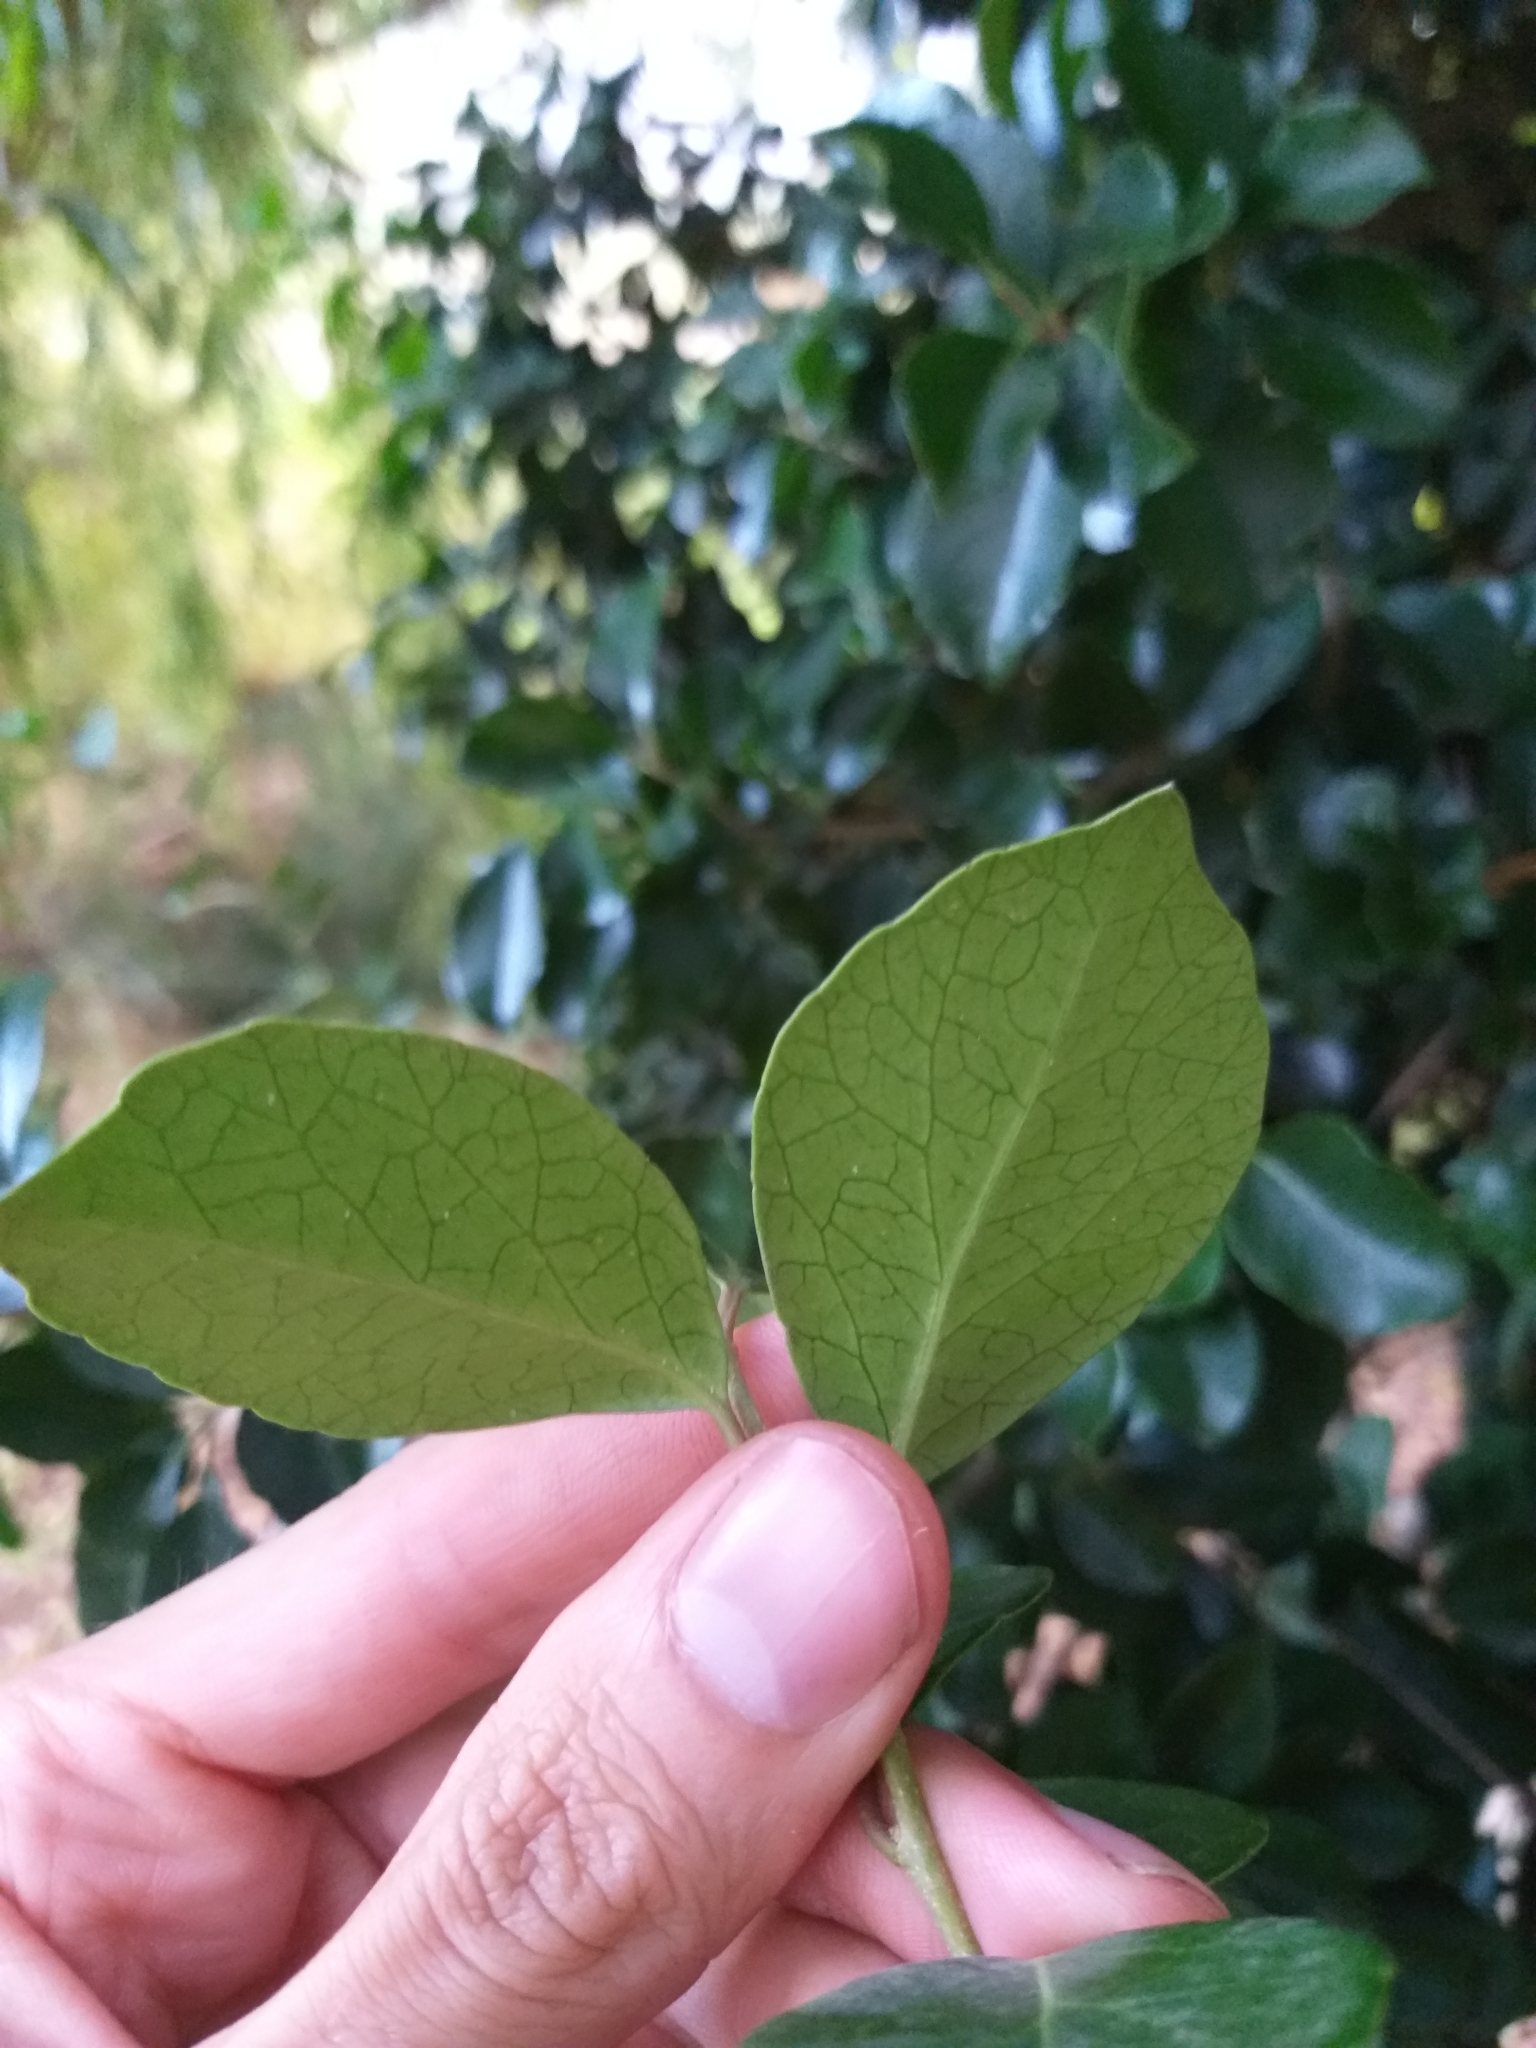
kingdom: Plantae
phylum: Tracheophyta
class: Magnoliopsida
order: Malpighiales
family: Salicaceae
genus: Scolopia
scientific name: Scolopia mundii
